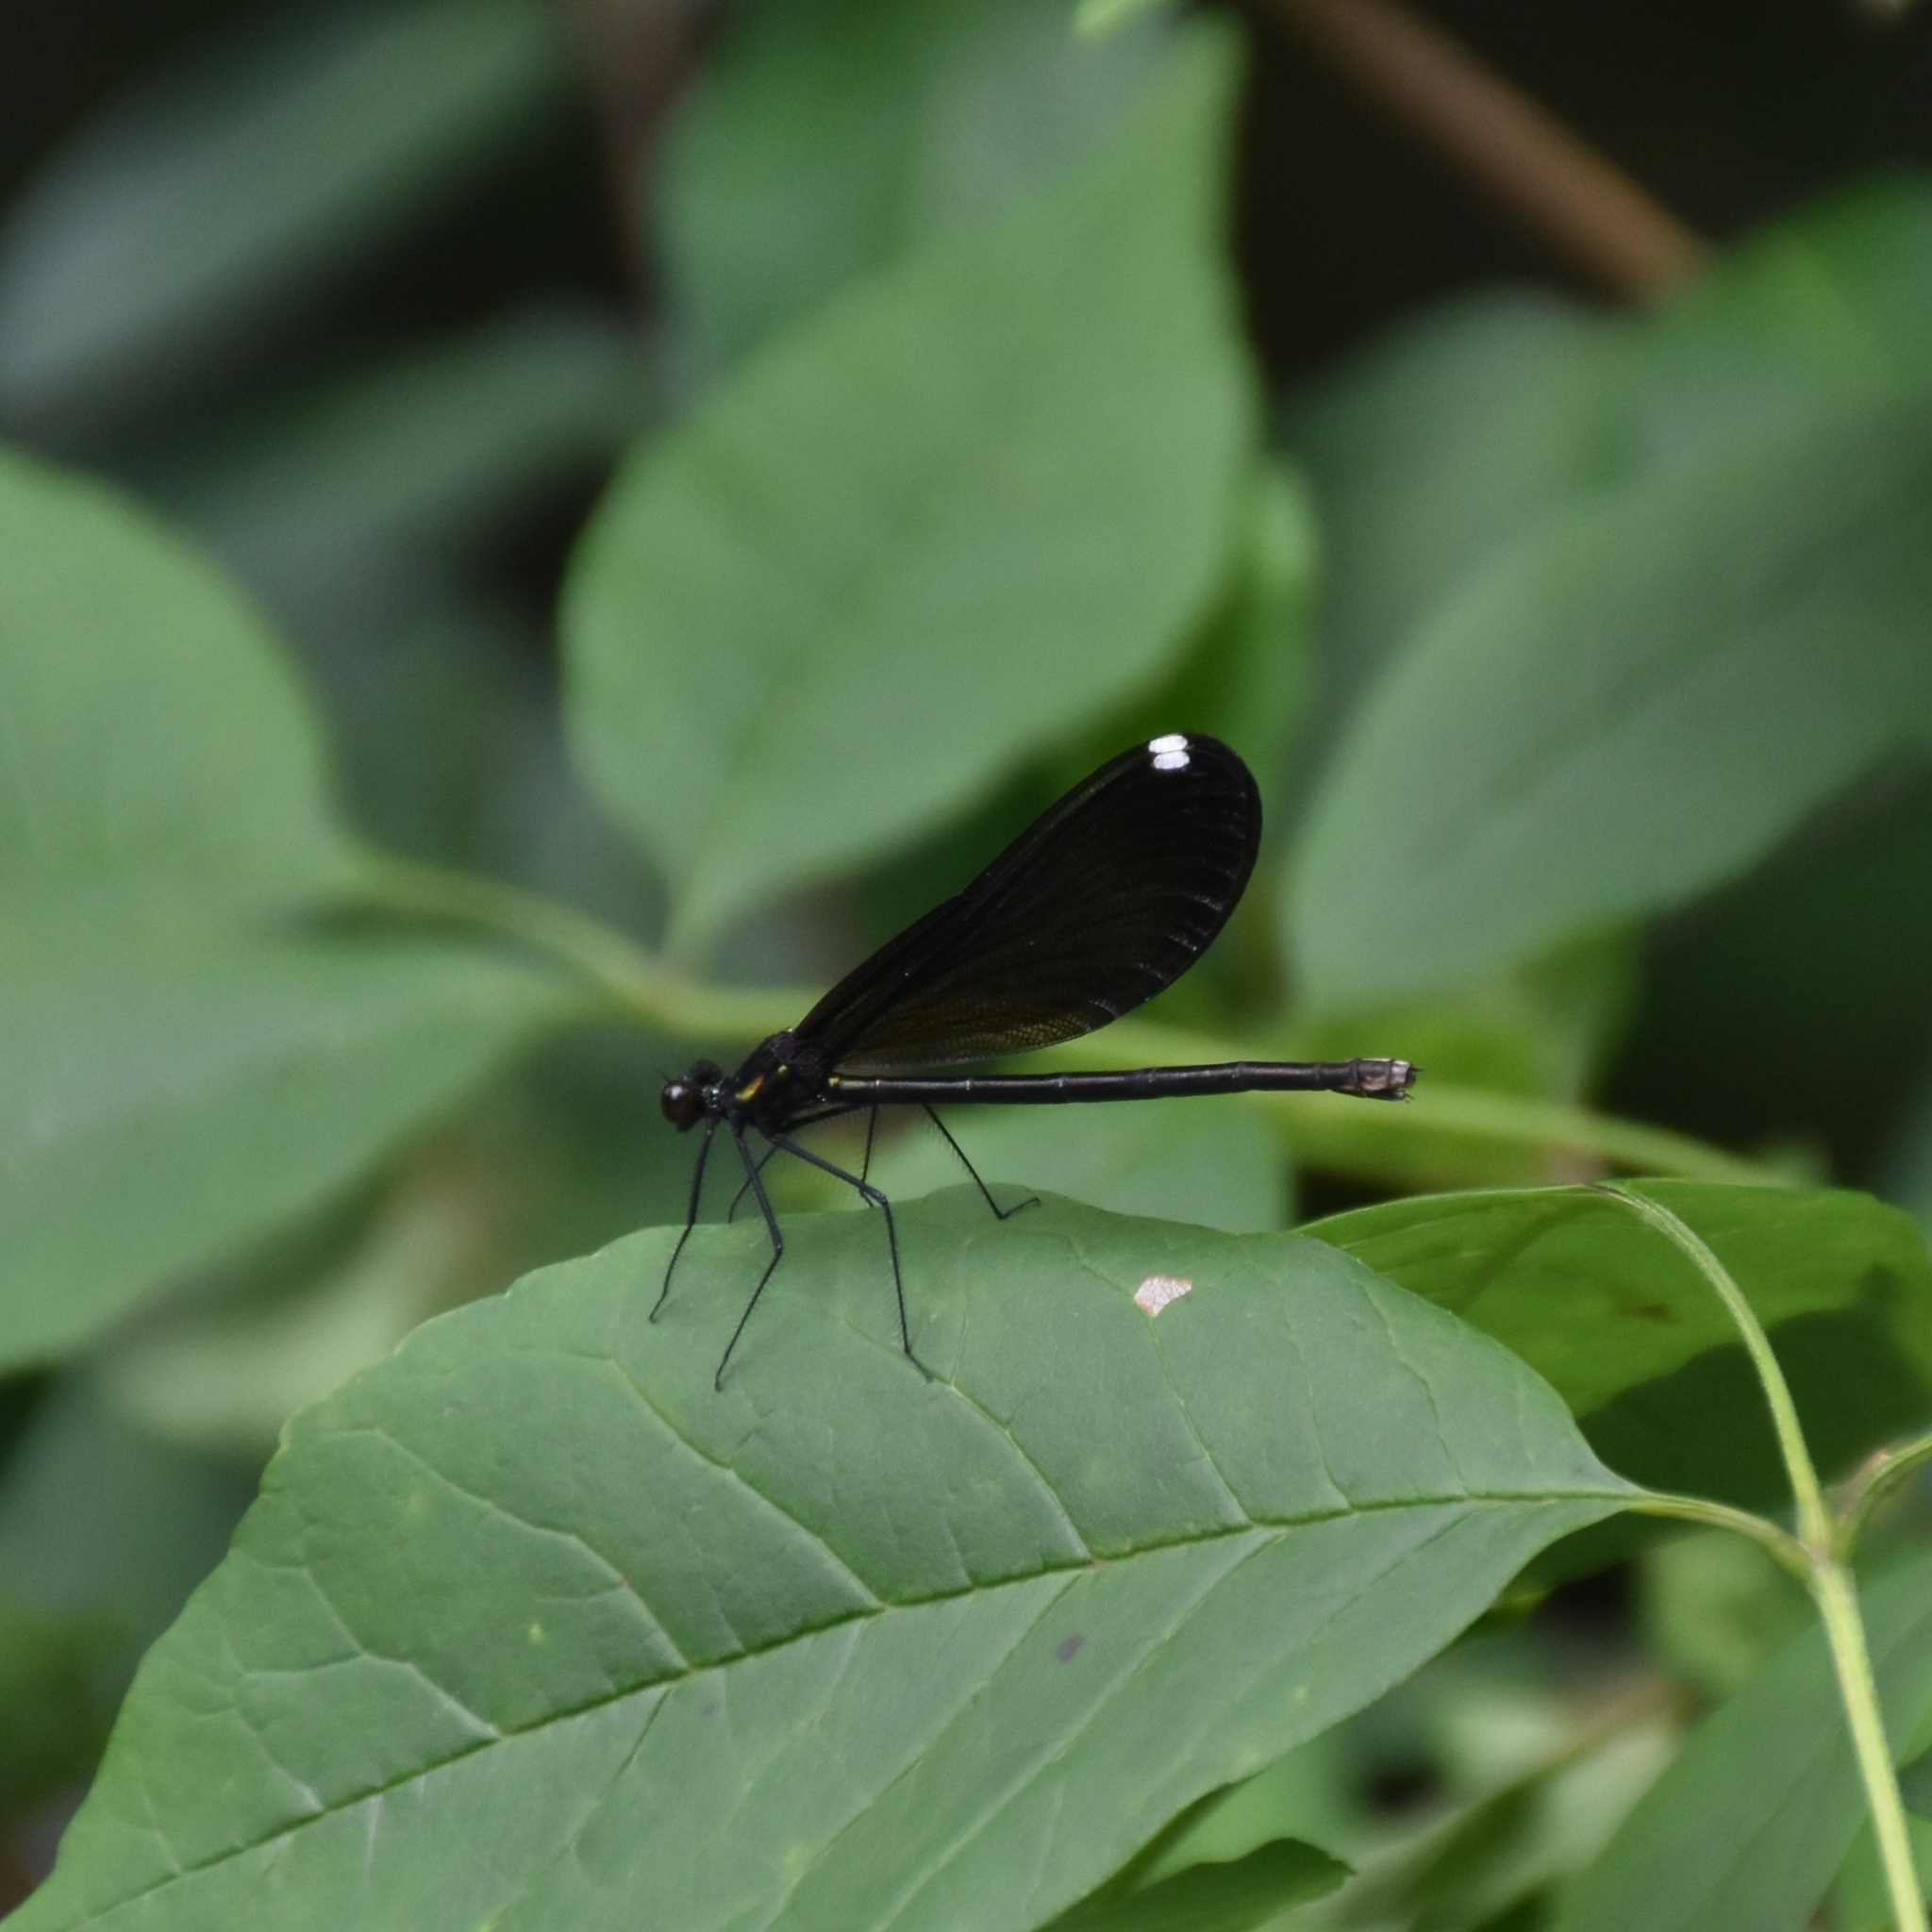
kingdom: Animalia
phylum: Arthropoda
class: Insecta
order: Odonata
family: Calopterygidae
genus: Calopteryx
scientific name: Calopteryx maculata
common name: Ebony jewelwing
